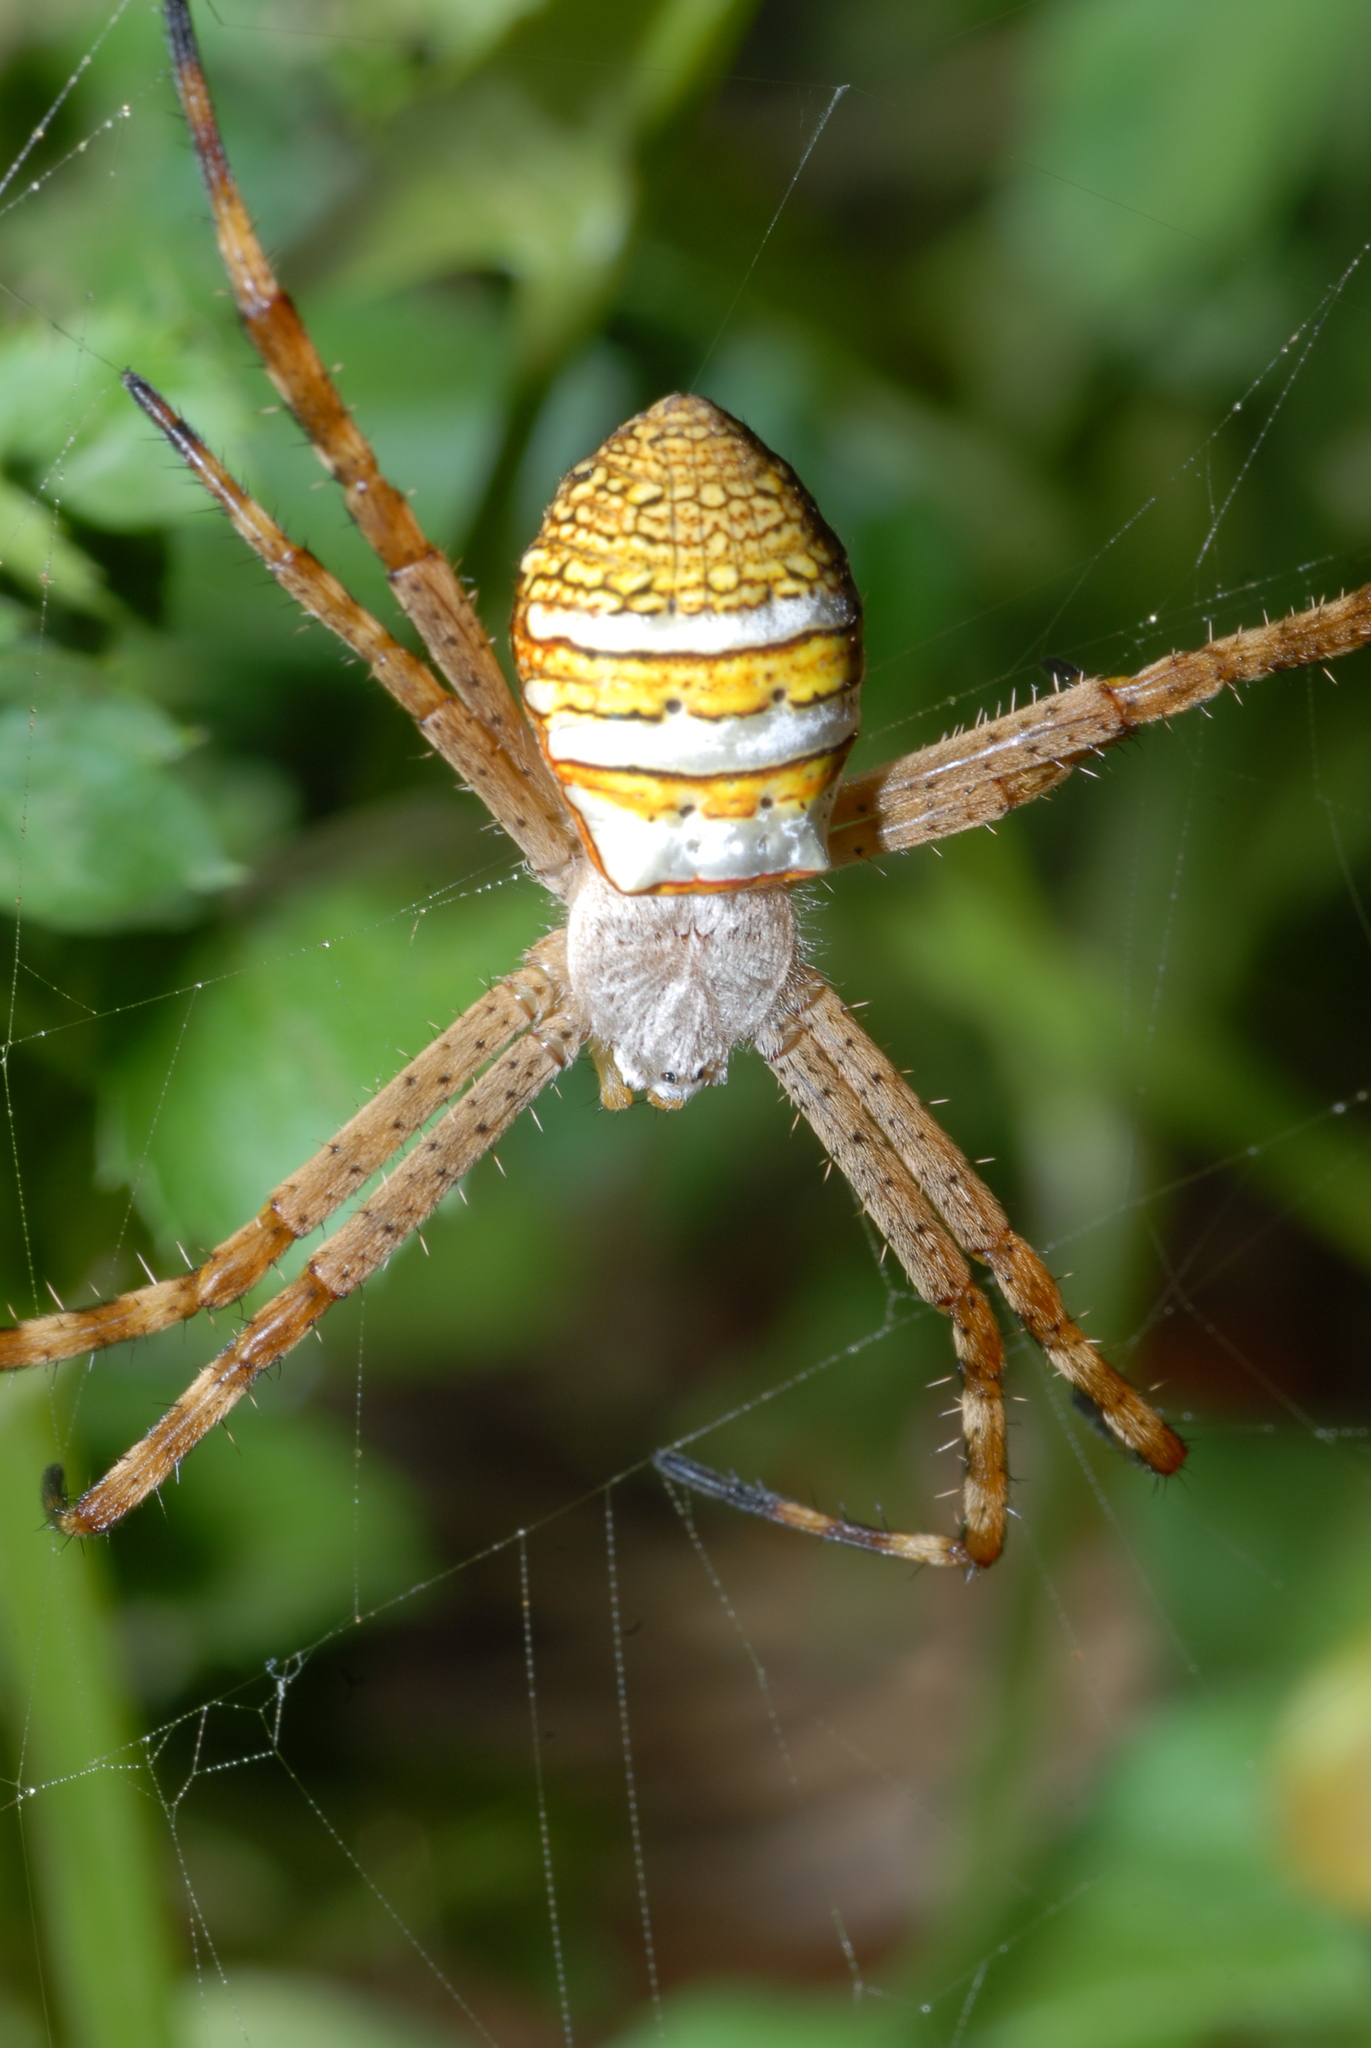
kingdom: Animalia
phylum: Arthropoda
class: Arachnida
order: Araneae
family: Araneidae
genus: Argiope
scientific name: Argiope aemula
